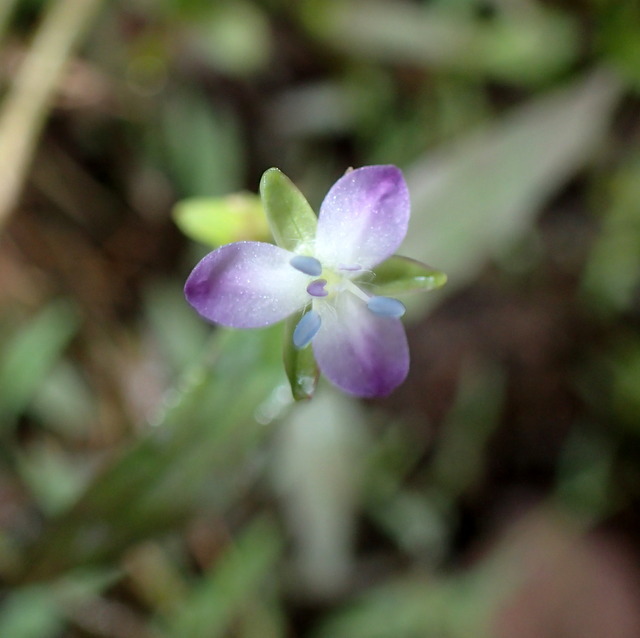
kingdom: Plantae
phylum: Tracheophyta
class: Liliopsida
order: Commelinales
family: Commelinaceae
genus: Murdannia
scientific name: Murdannia keisak
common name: Wartremoving herb
